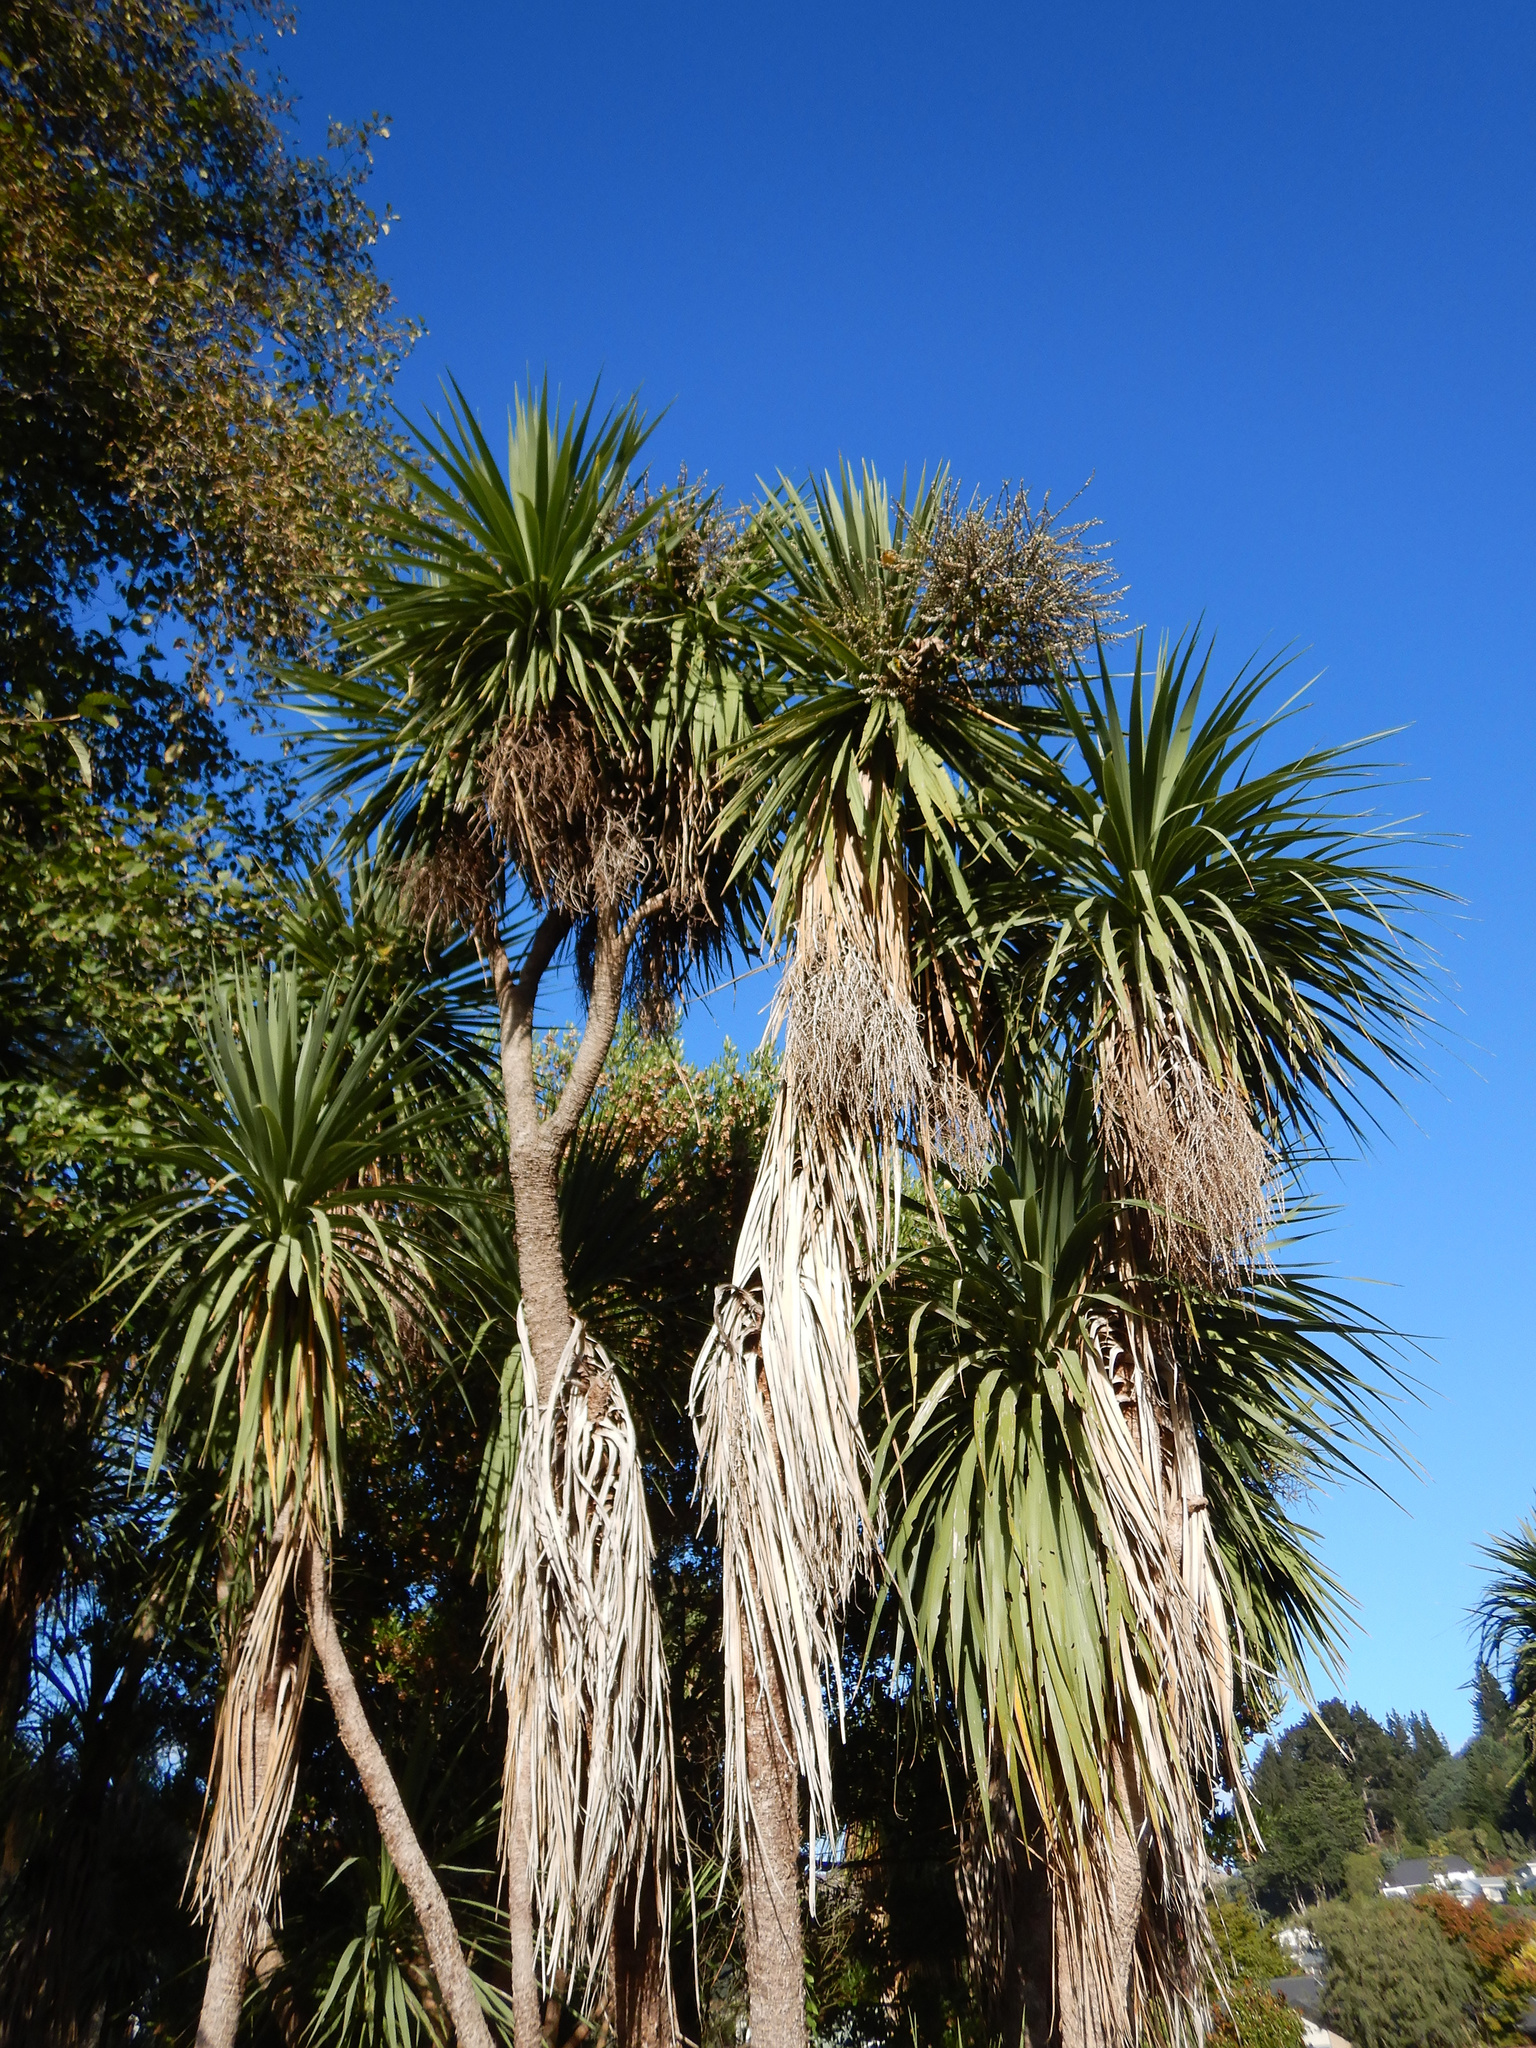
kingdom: Plantae
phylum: Tracheophyta
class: Liliopsida
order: Asparagales
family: Asparagaceae
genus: Cordyline
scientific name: Cordyline australis
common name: Cabbage-palm
